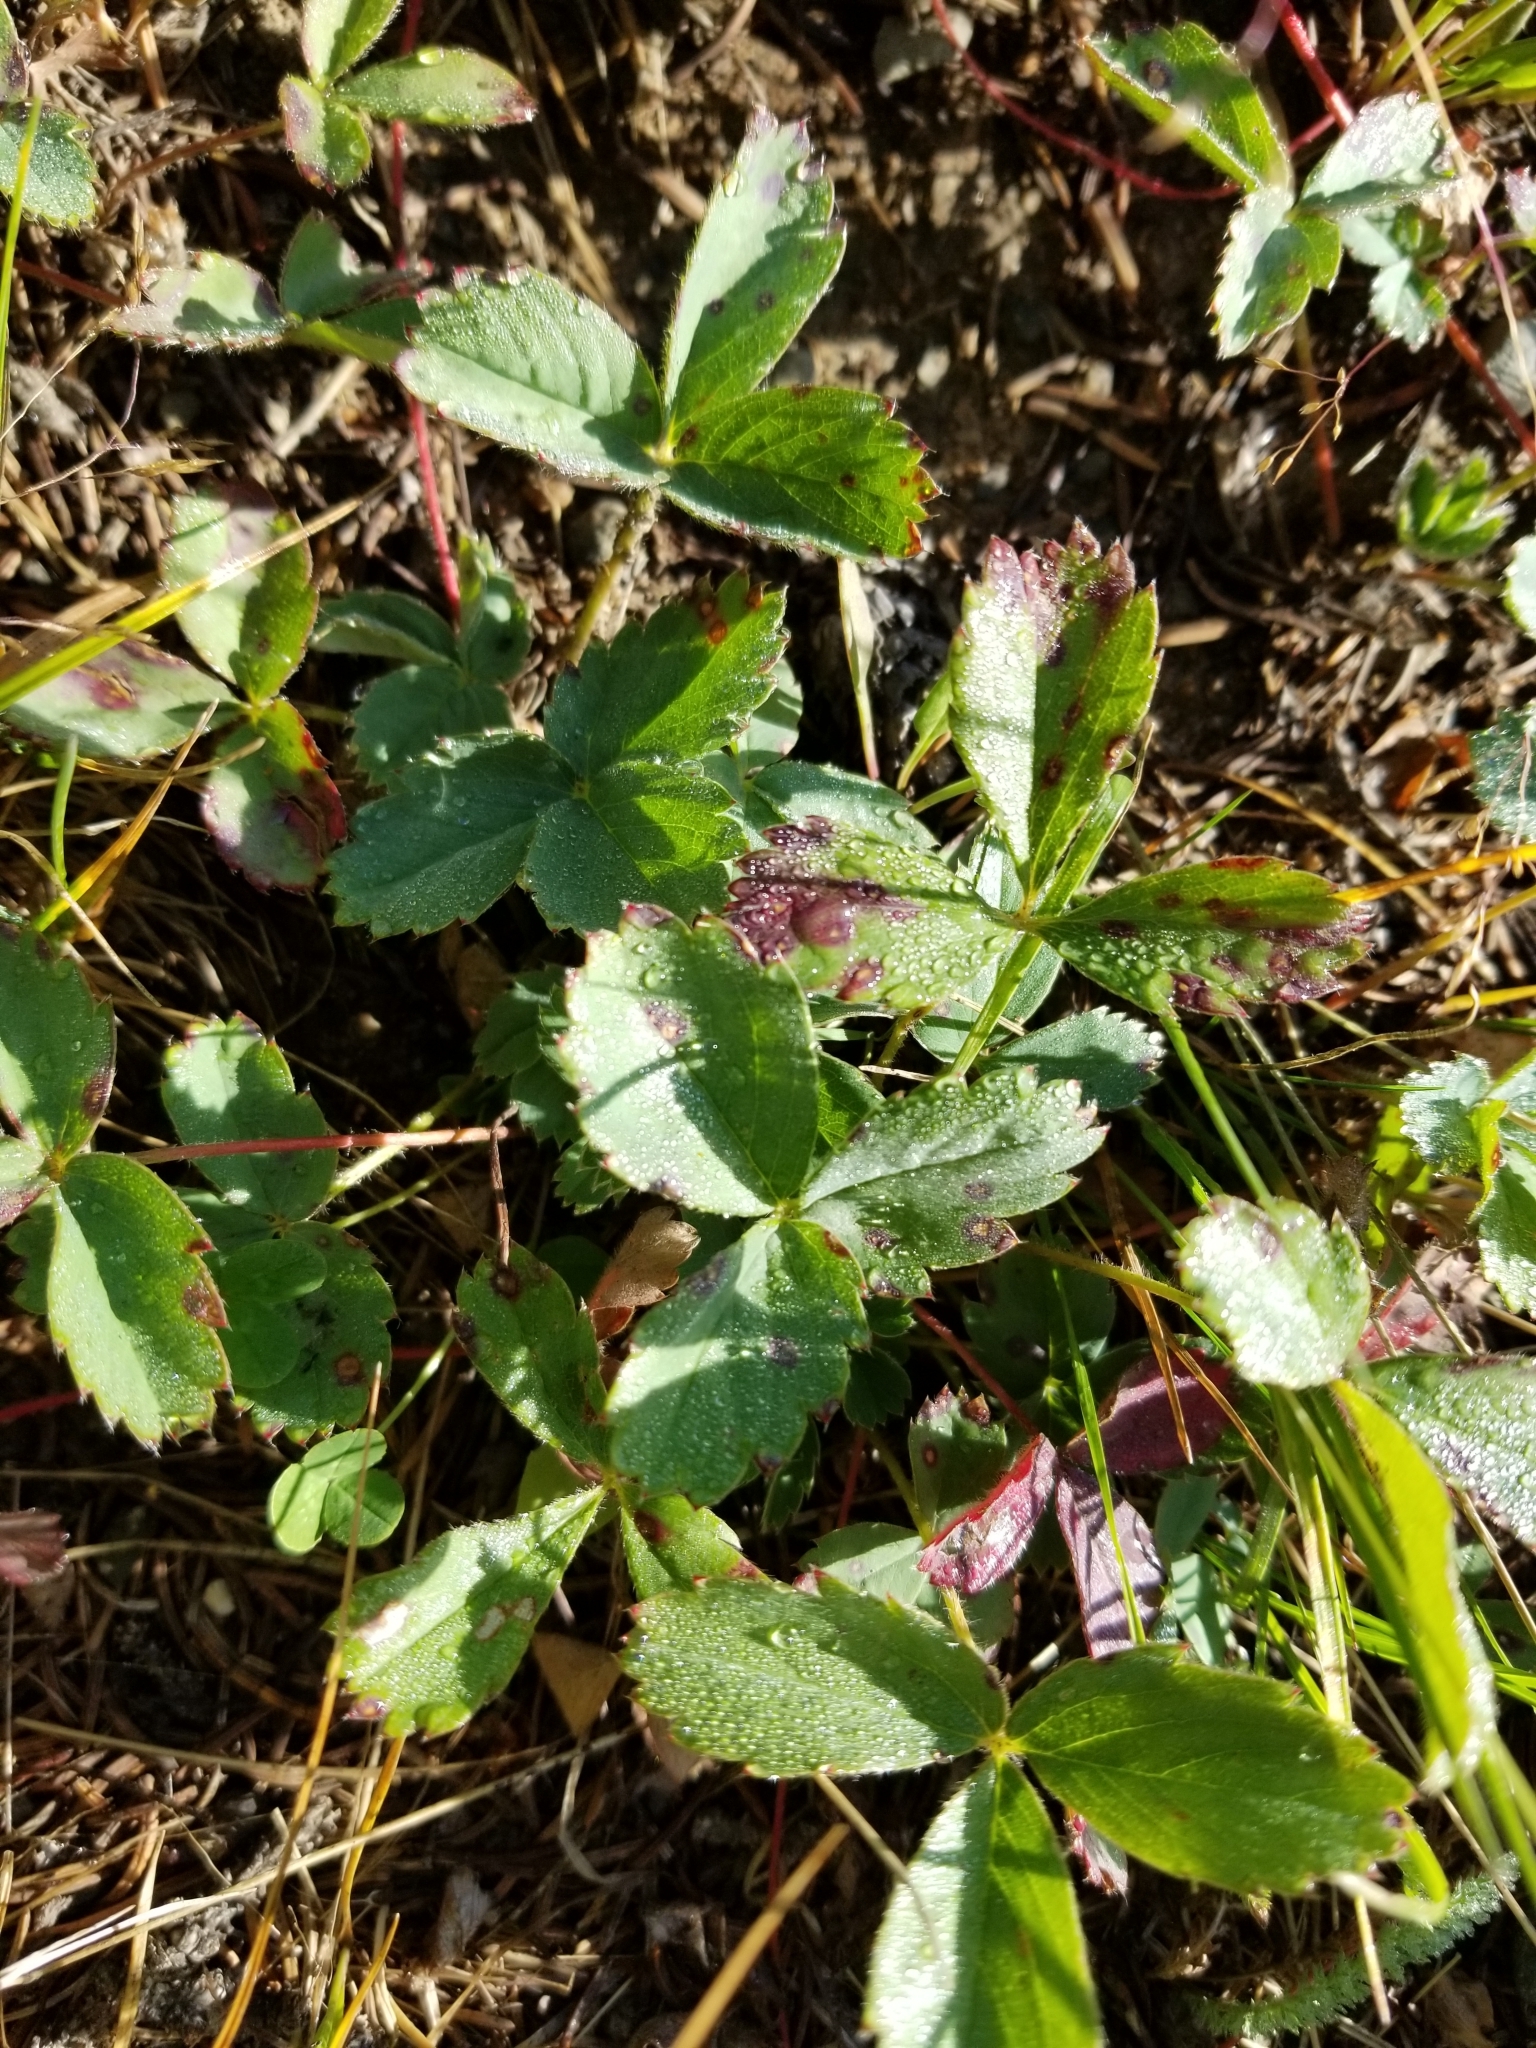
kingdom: Plantae
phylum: Tracheophyta
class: Magnoliopsida
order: Rosales
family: Rosaceae
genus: Fragaria
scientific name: Fragaria vesca
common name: Wild strawberry
